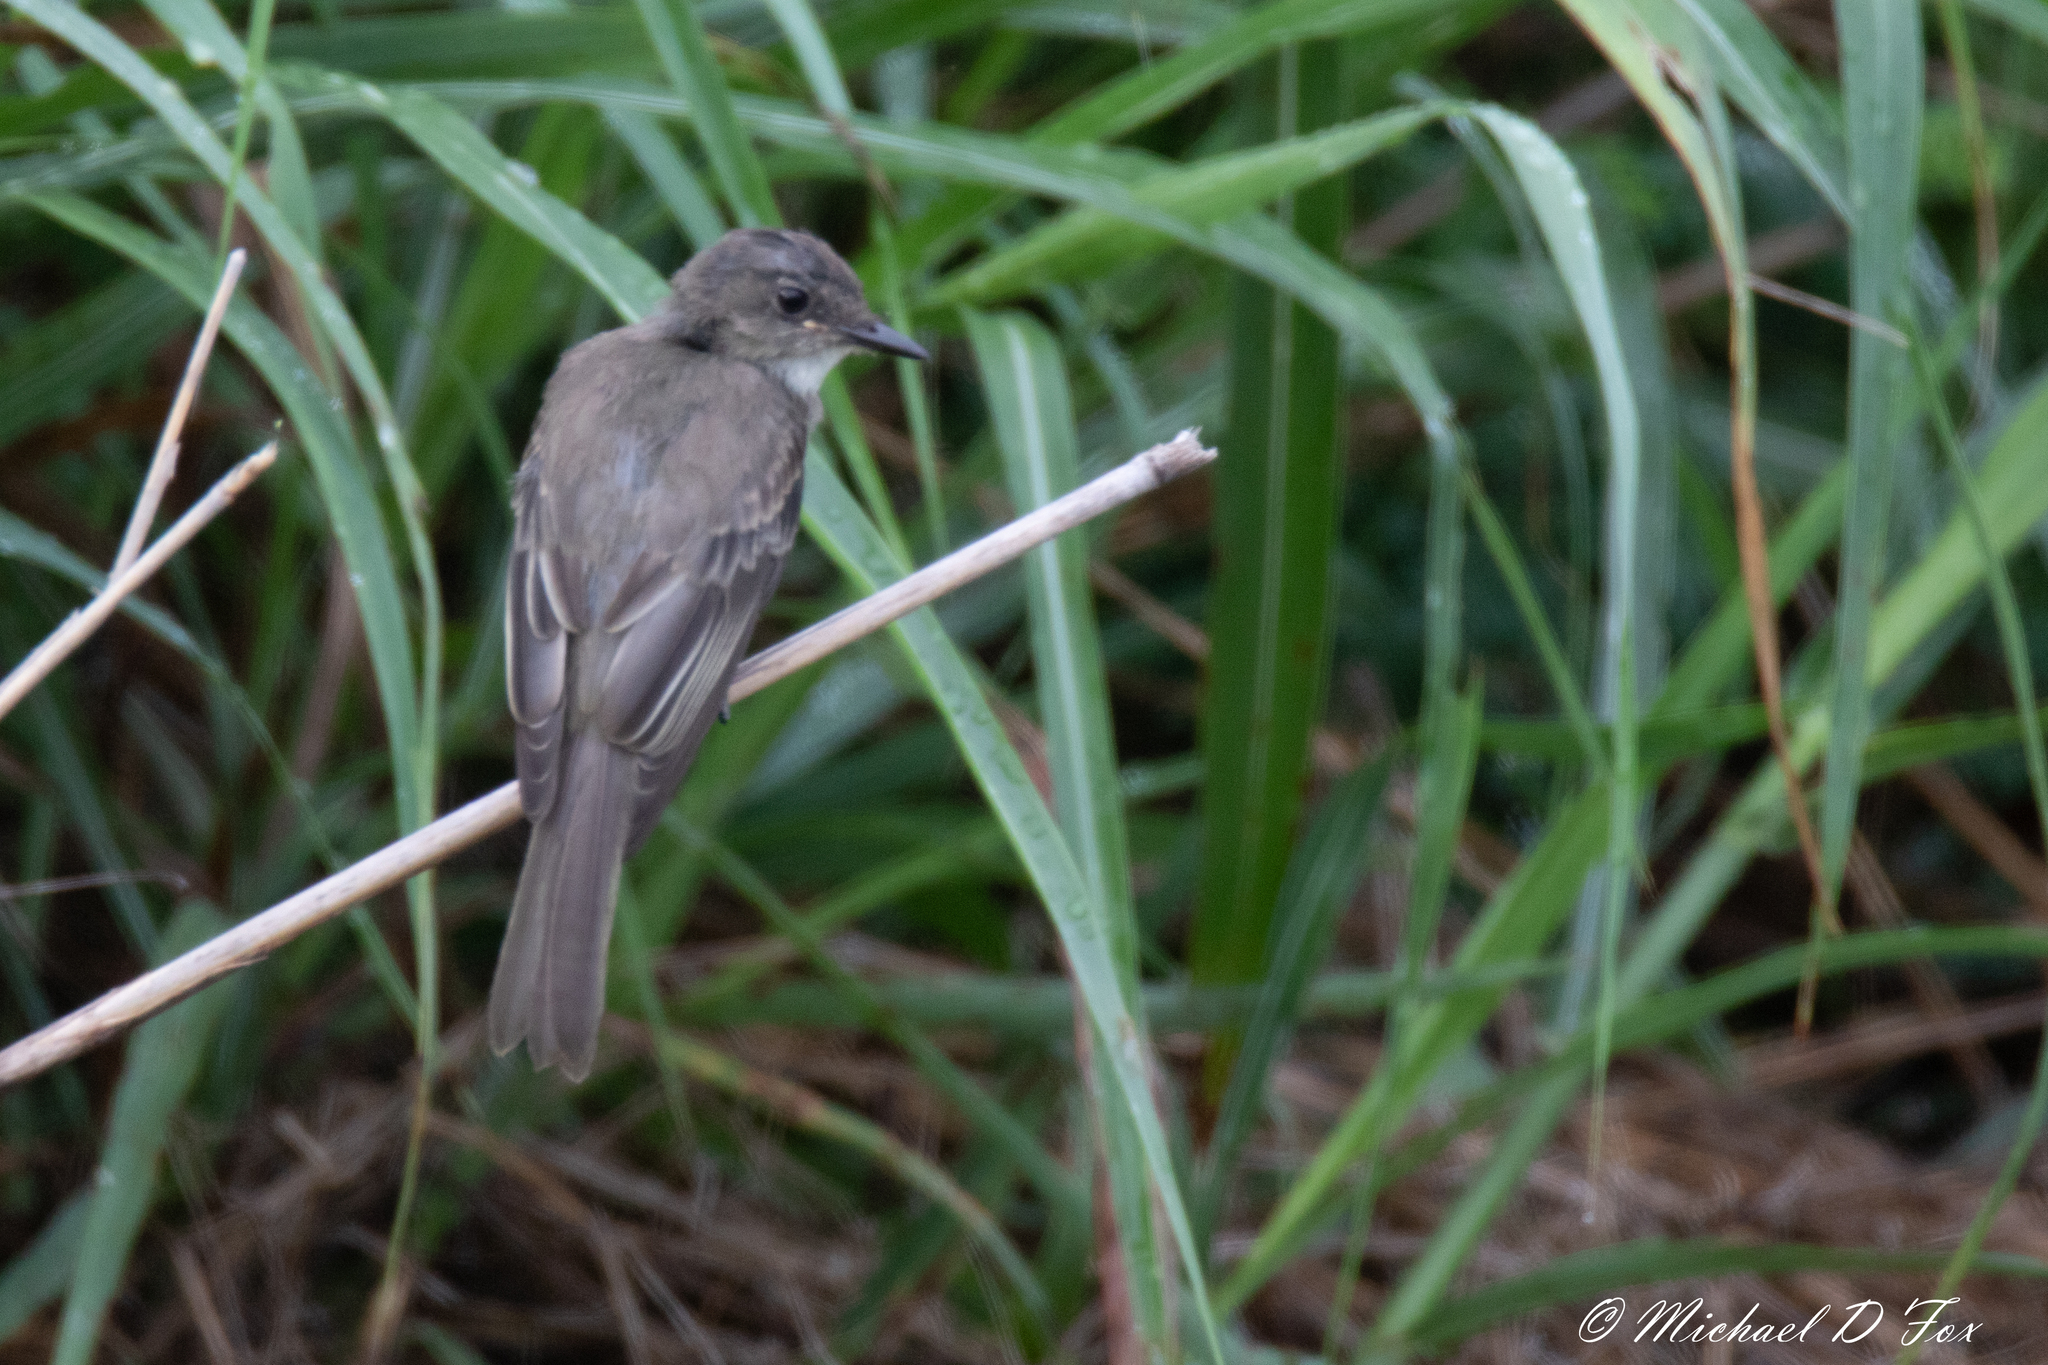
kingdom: Animalia
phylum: Chordata
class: Aves
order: Passeriformes
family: Tyrannidae
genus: Sayornis
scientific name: Sayornis phoebe
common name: Eastern phoebe
